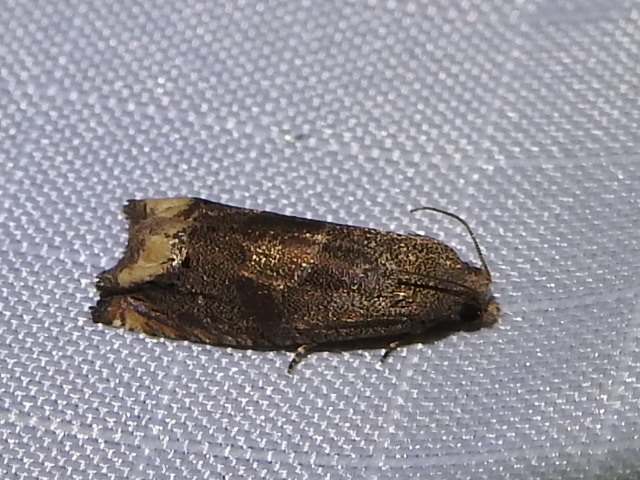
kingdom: Animalia
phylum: Arthropoda
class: Insecta
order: Lepidoptera
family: Tortricidae
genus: Epiblema
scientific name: Epiblema strenuana
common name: Ragweed borer moth
